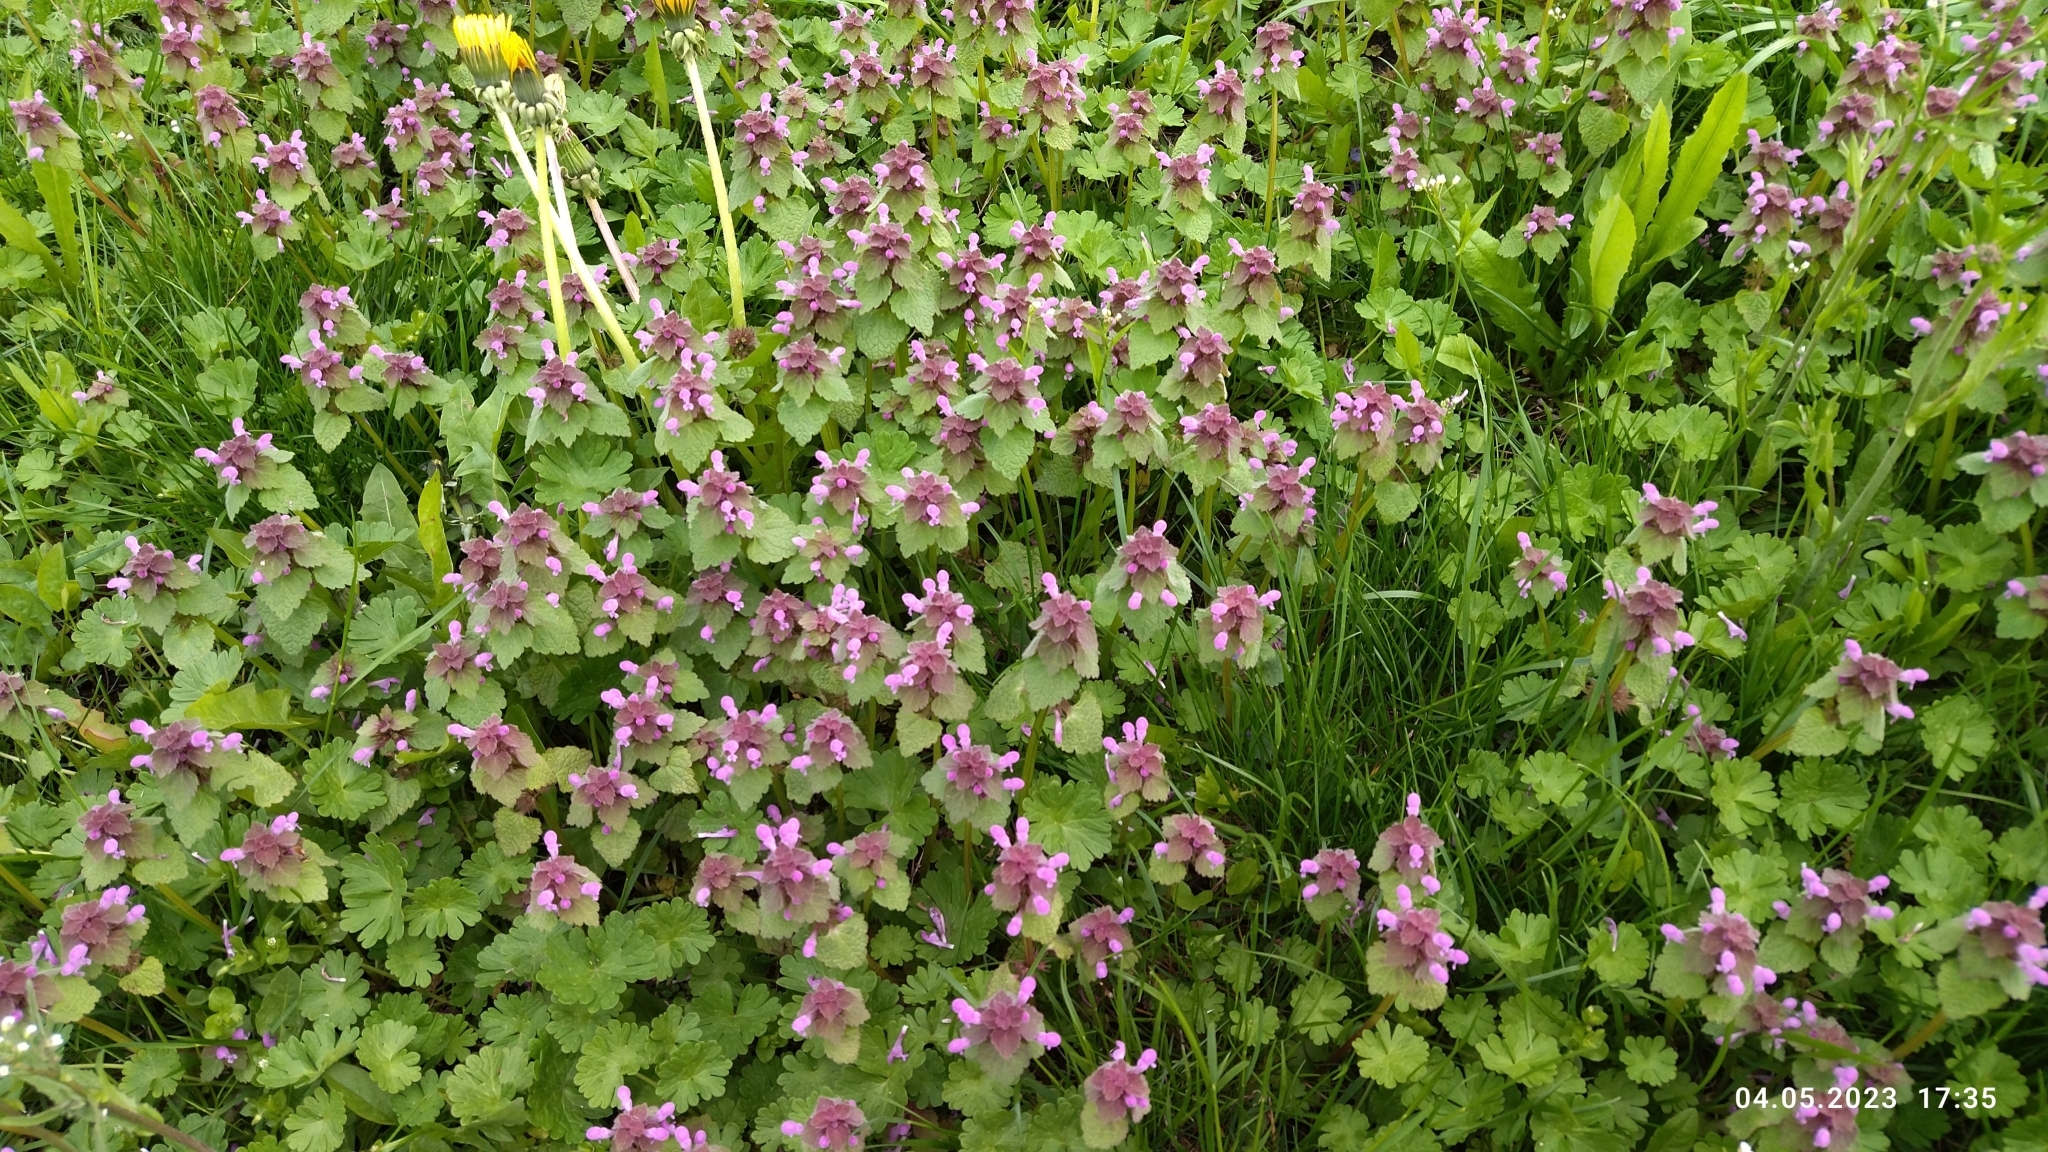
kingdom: Plantae
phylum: Tracheophyta
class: Magnoliopsida
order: Lamiales
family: Lamiaceae
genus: Lamium
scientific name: Lamium purpureum
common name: Red dead-nettle
